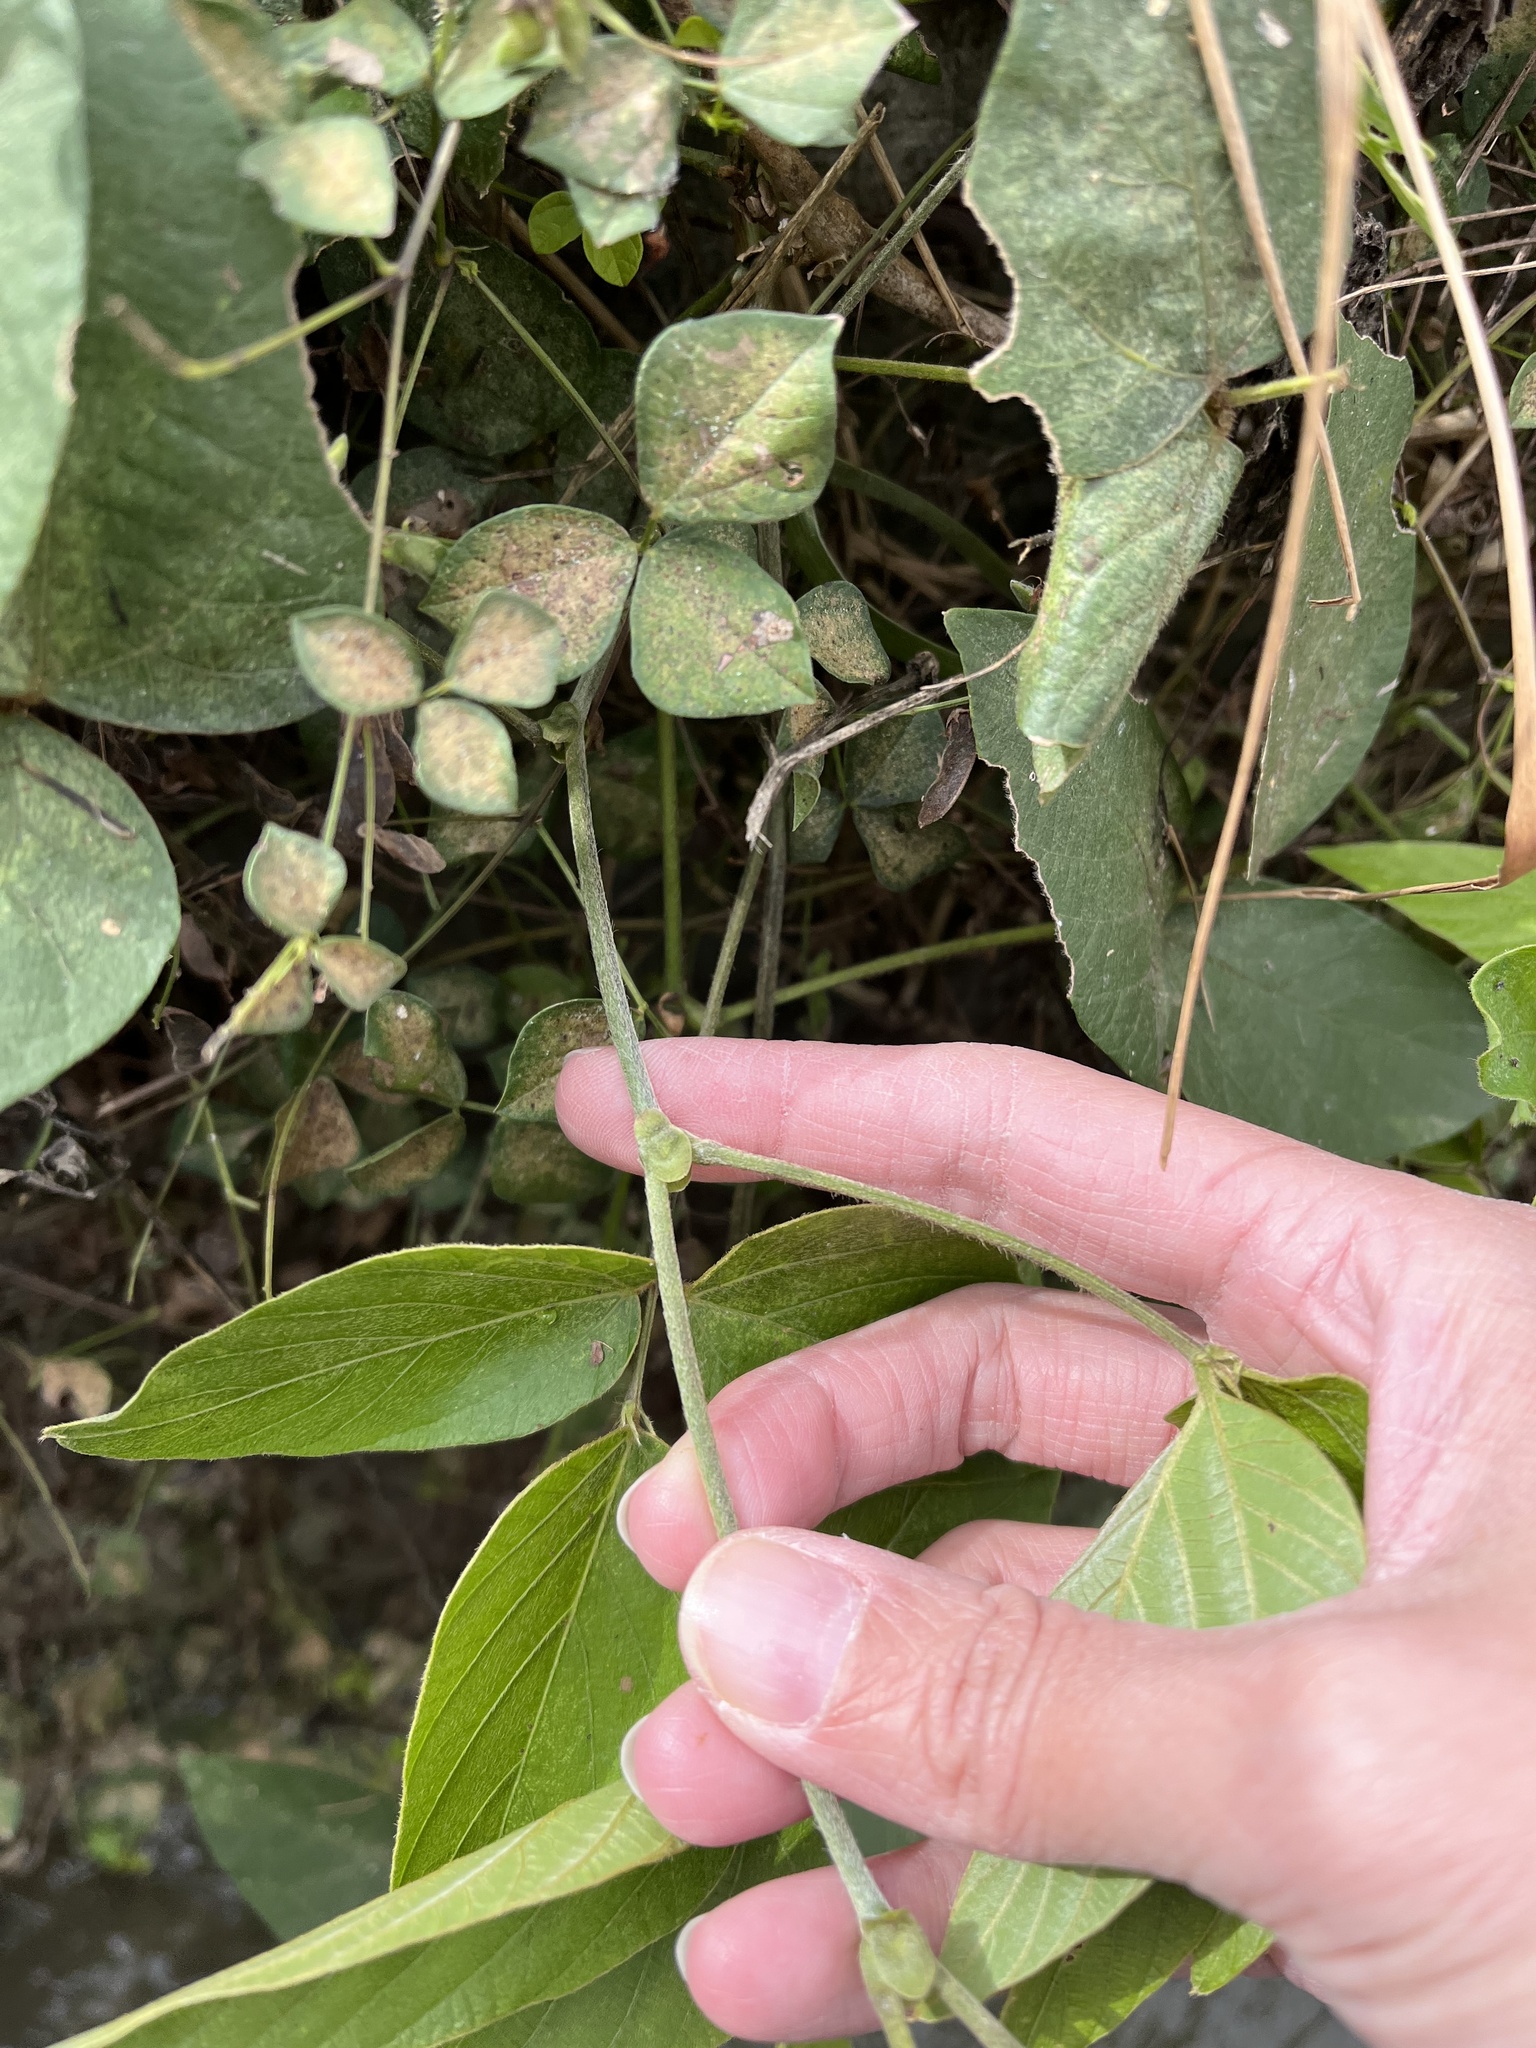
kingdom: Plantae
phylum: Tracheophyta
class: Magnoliopsida
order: Fabales
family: Fabaceae
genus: Pueraria
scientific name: Pueraria montana
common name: Kudzu
